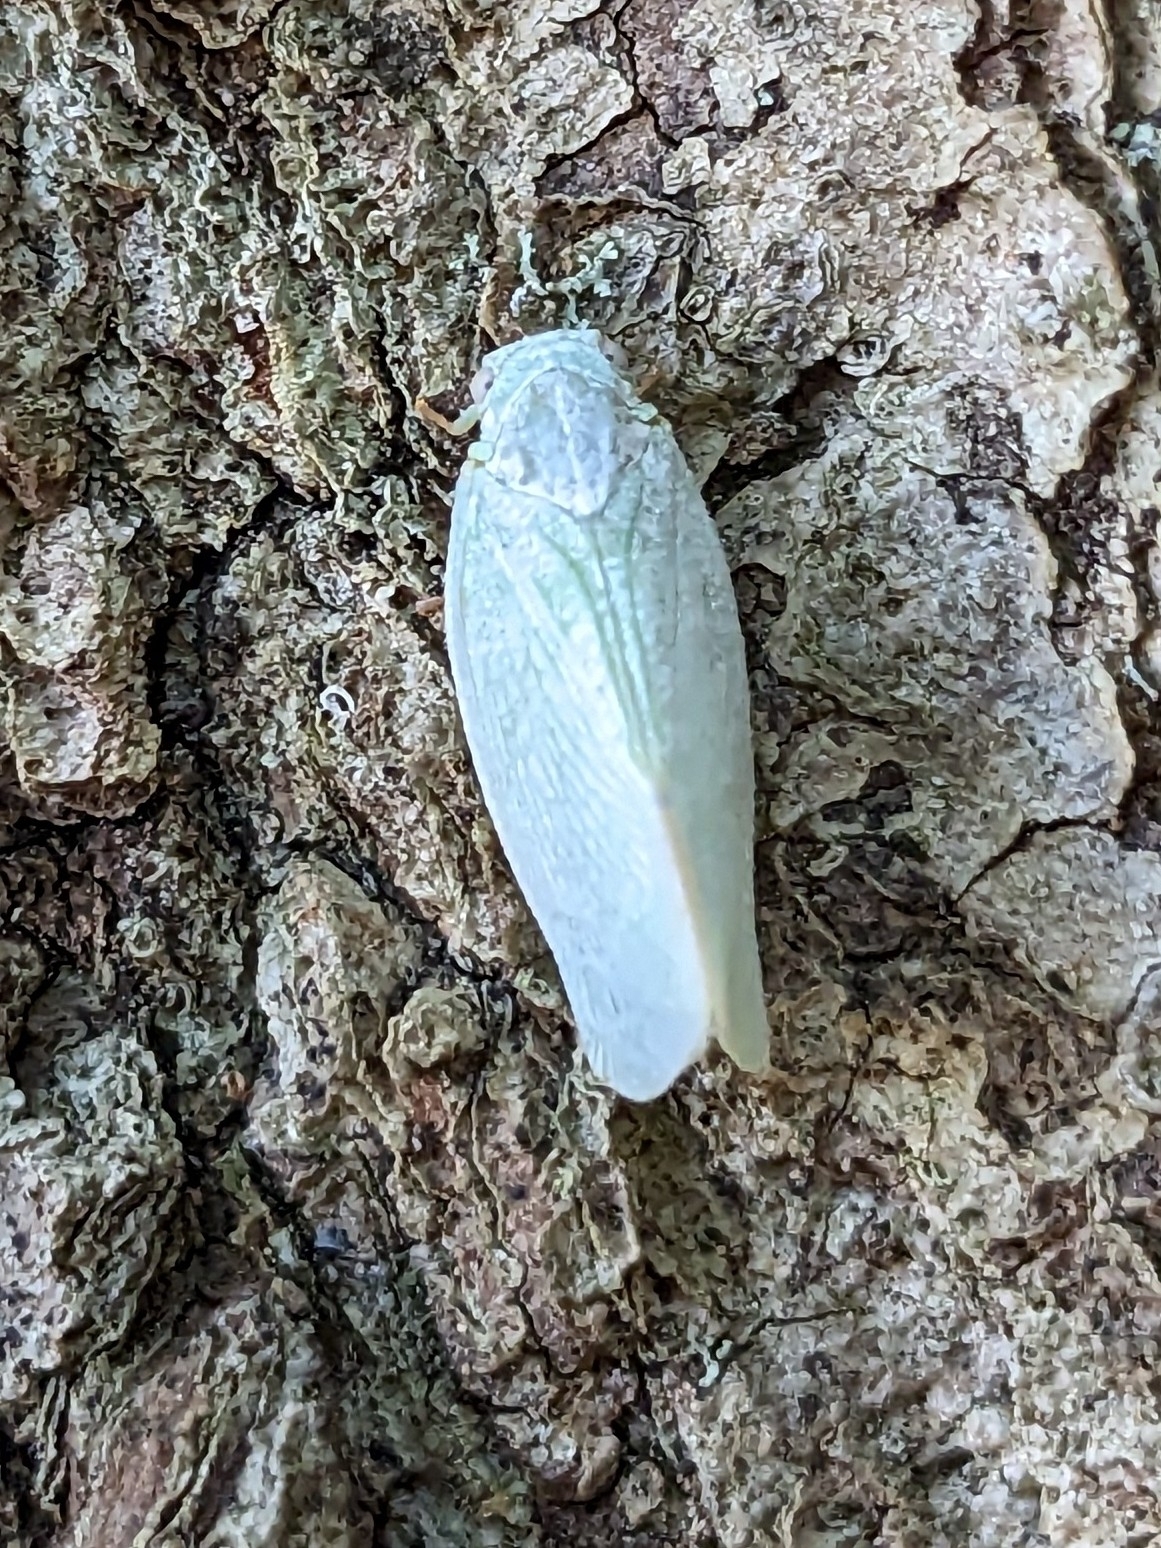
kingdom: Animalia
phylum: Arthropoda
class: Insecta
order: Hemiptera
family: Flatidae
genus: Flatormenis
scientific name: Flatormenis proxima
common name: Northern flatid planthopper
